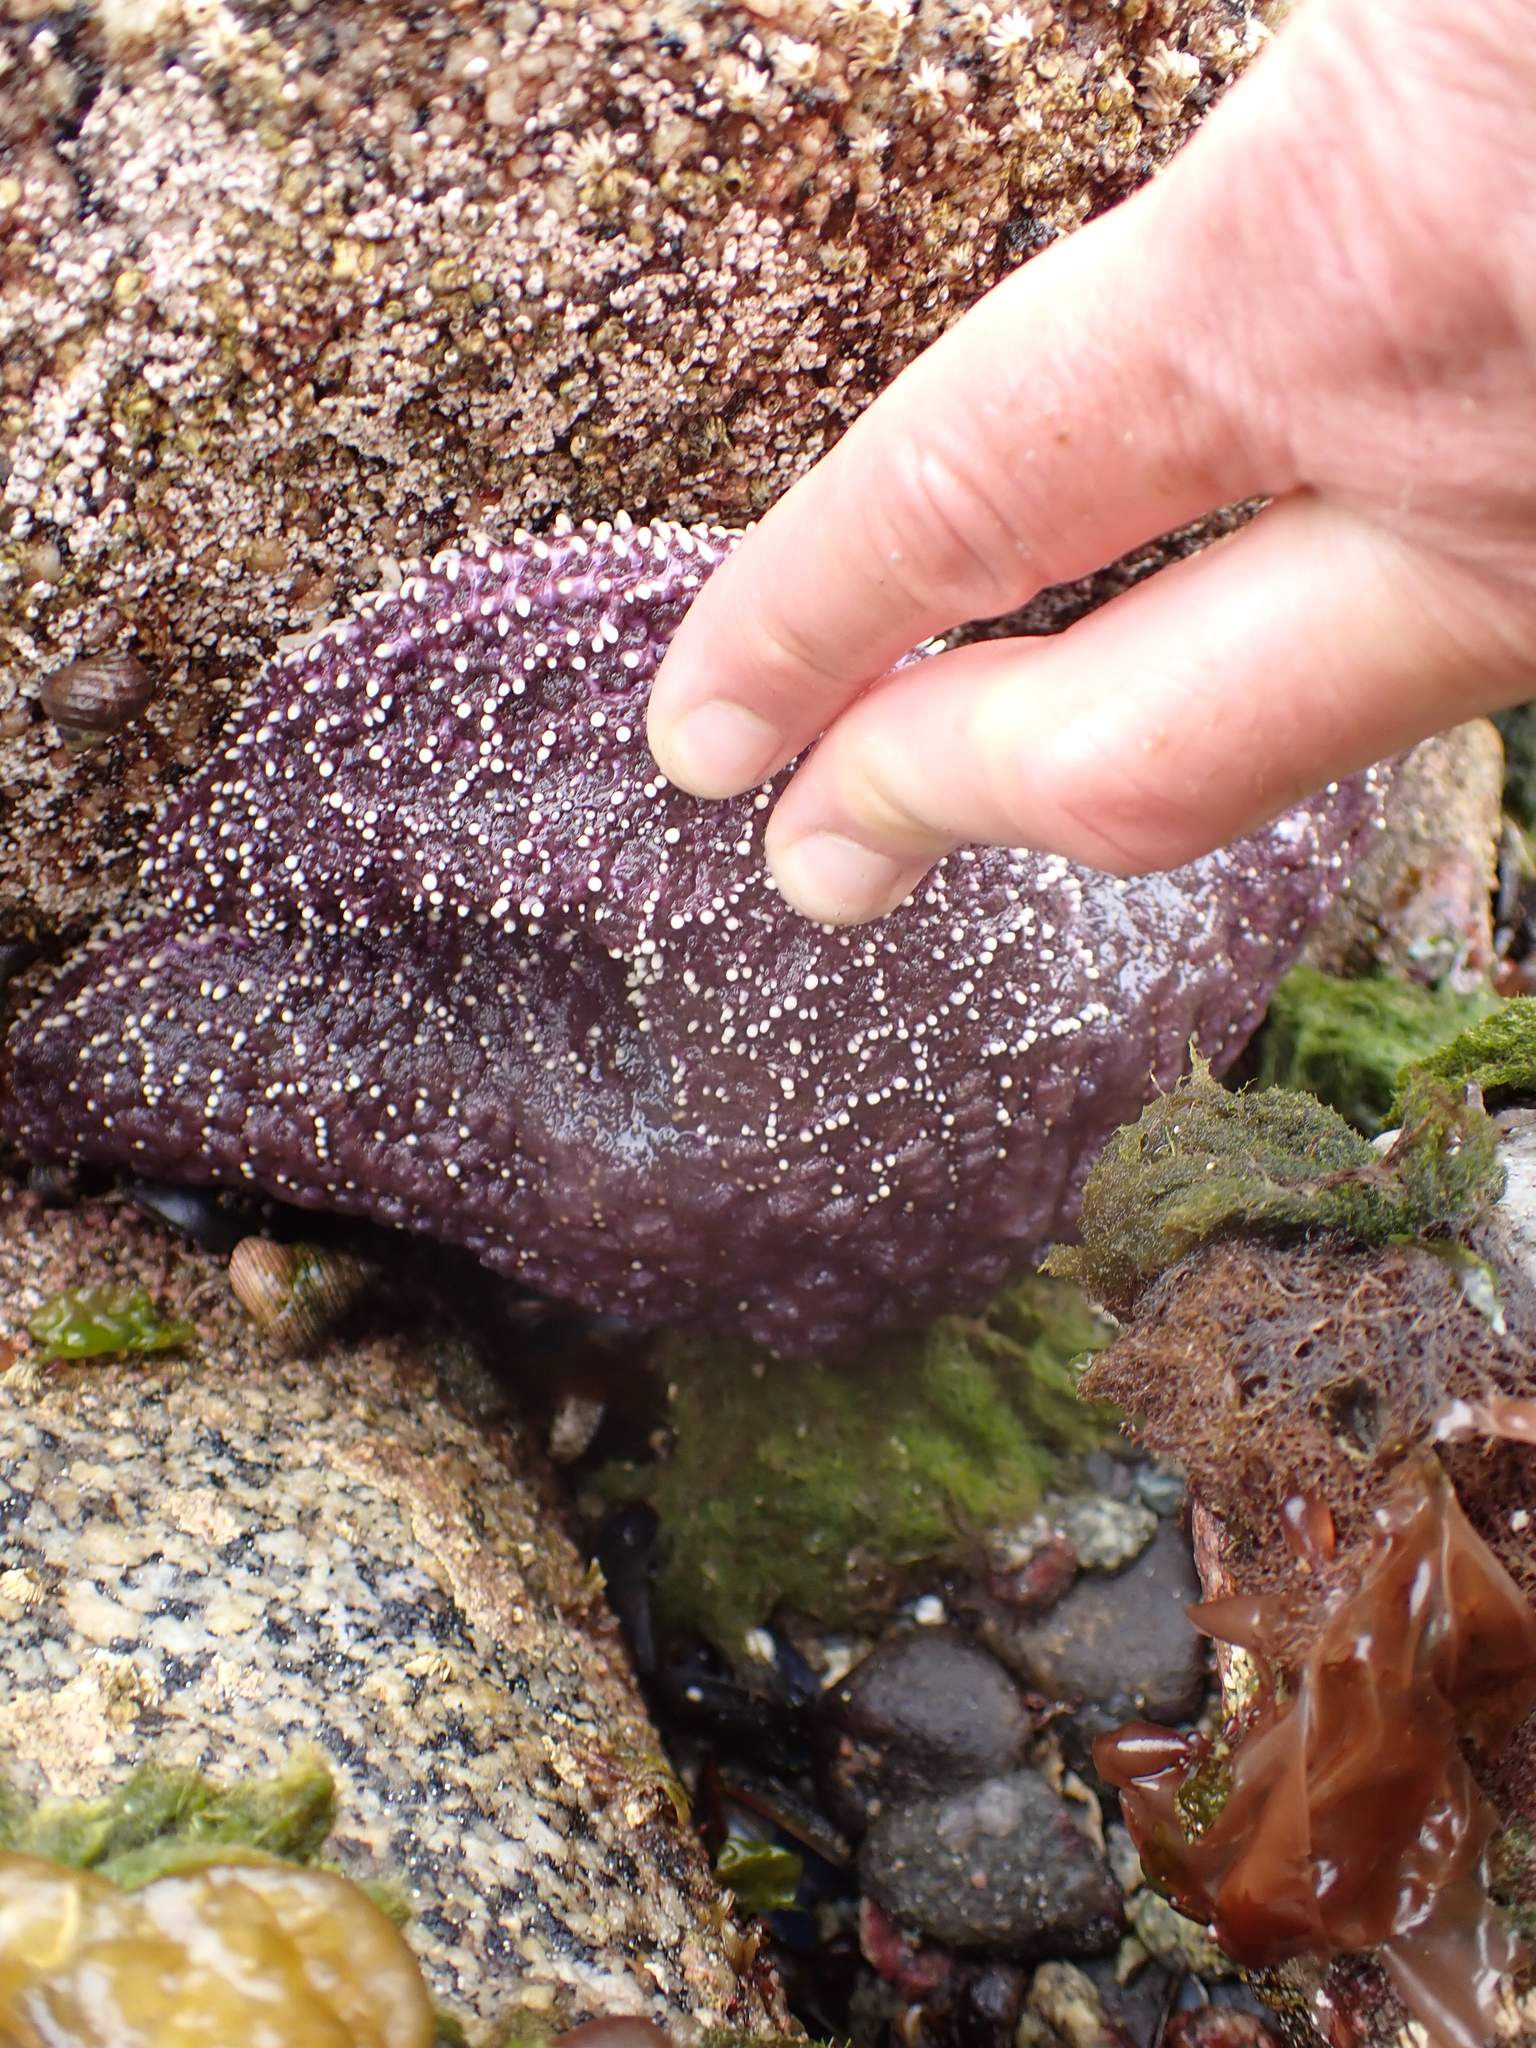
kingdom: Animalia
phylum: Echinodermata
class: Asteroidea
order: Forcipulatida
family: Asteriidae
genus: Pisaster
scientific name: Pisaster ochraceus
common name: Ochre stars
